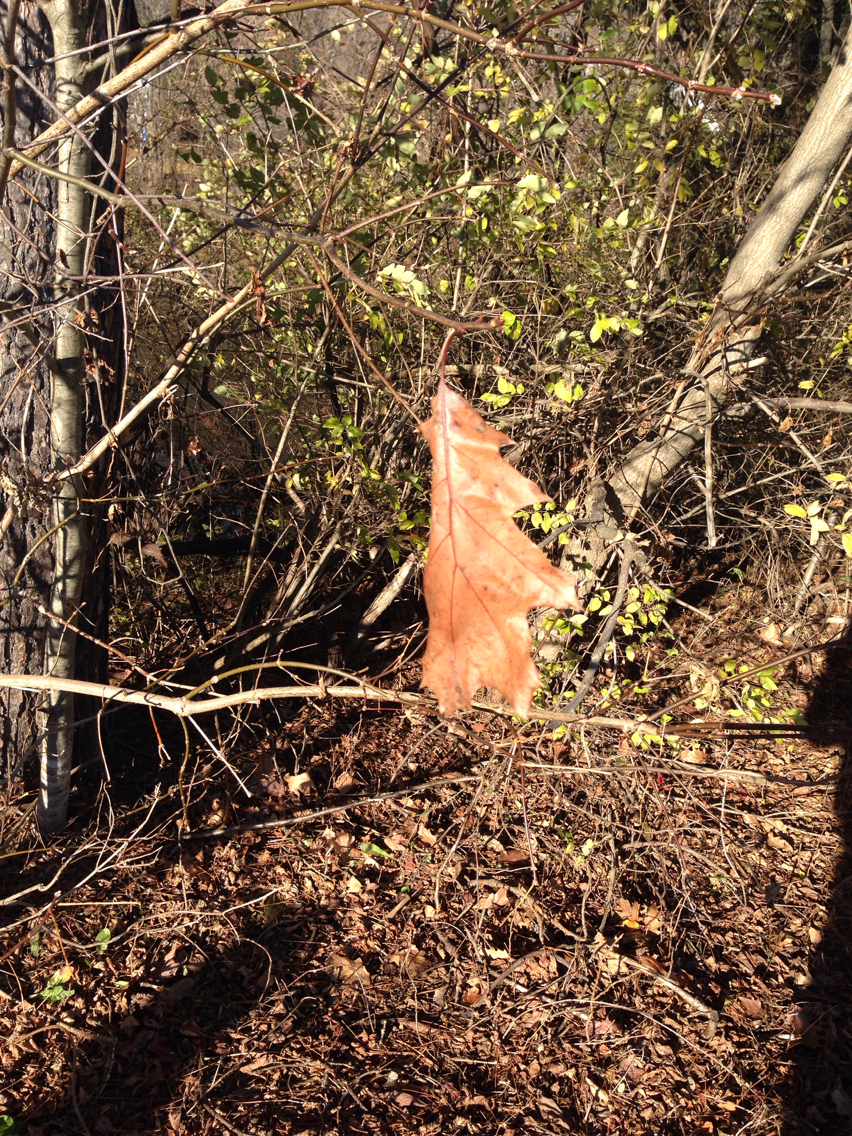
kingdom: Plantae
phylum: Tracheophyta
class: Magnoliopsida
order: Fagales
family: Fagaceae
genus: Quercus
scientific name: Quercus rubra
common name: Red oak
